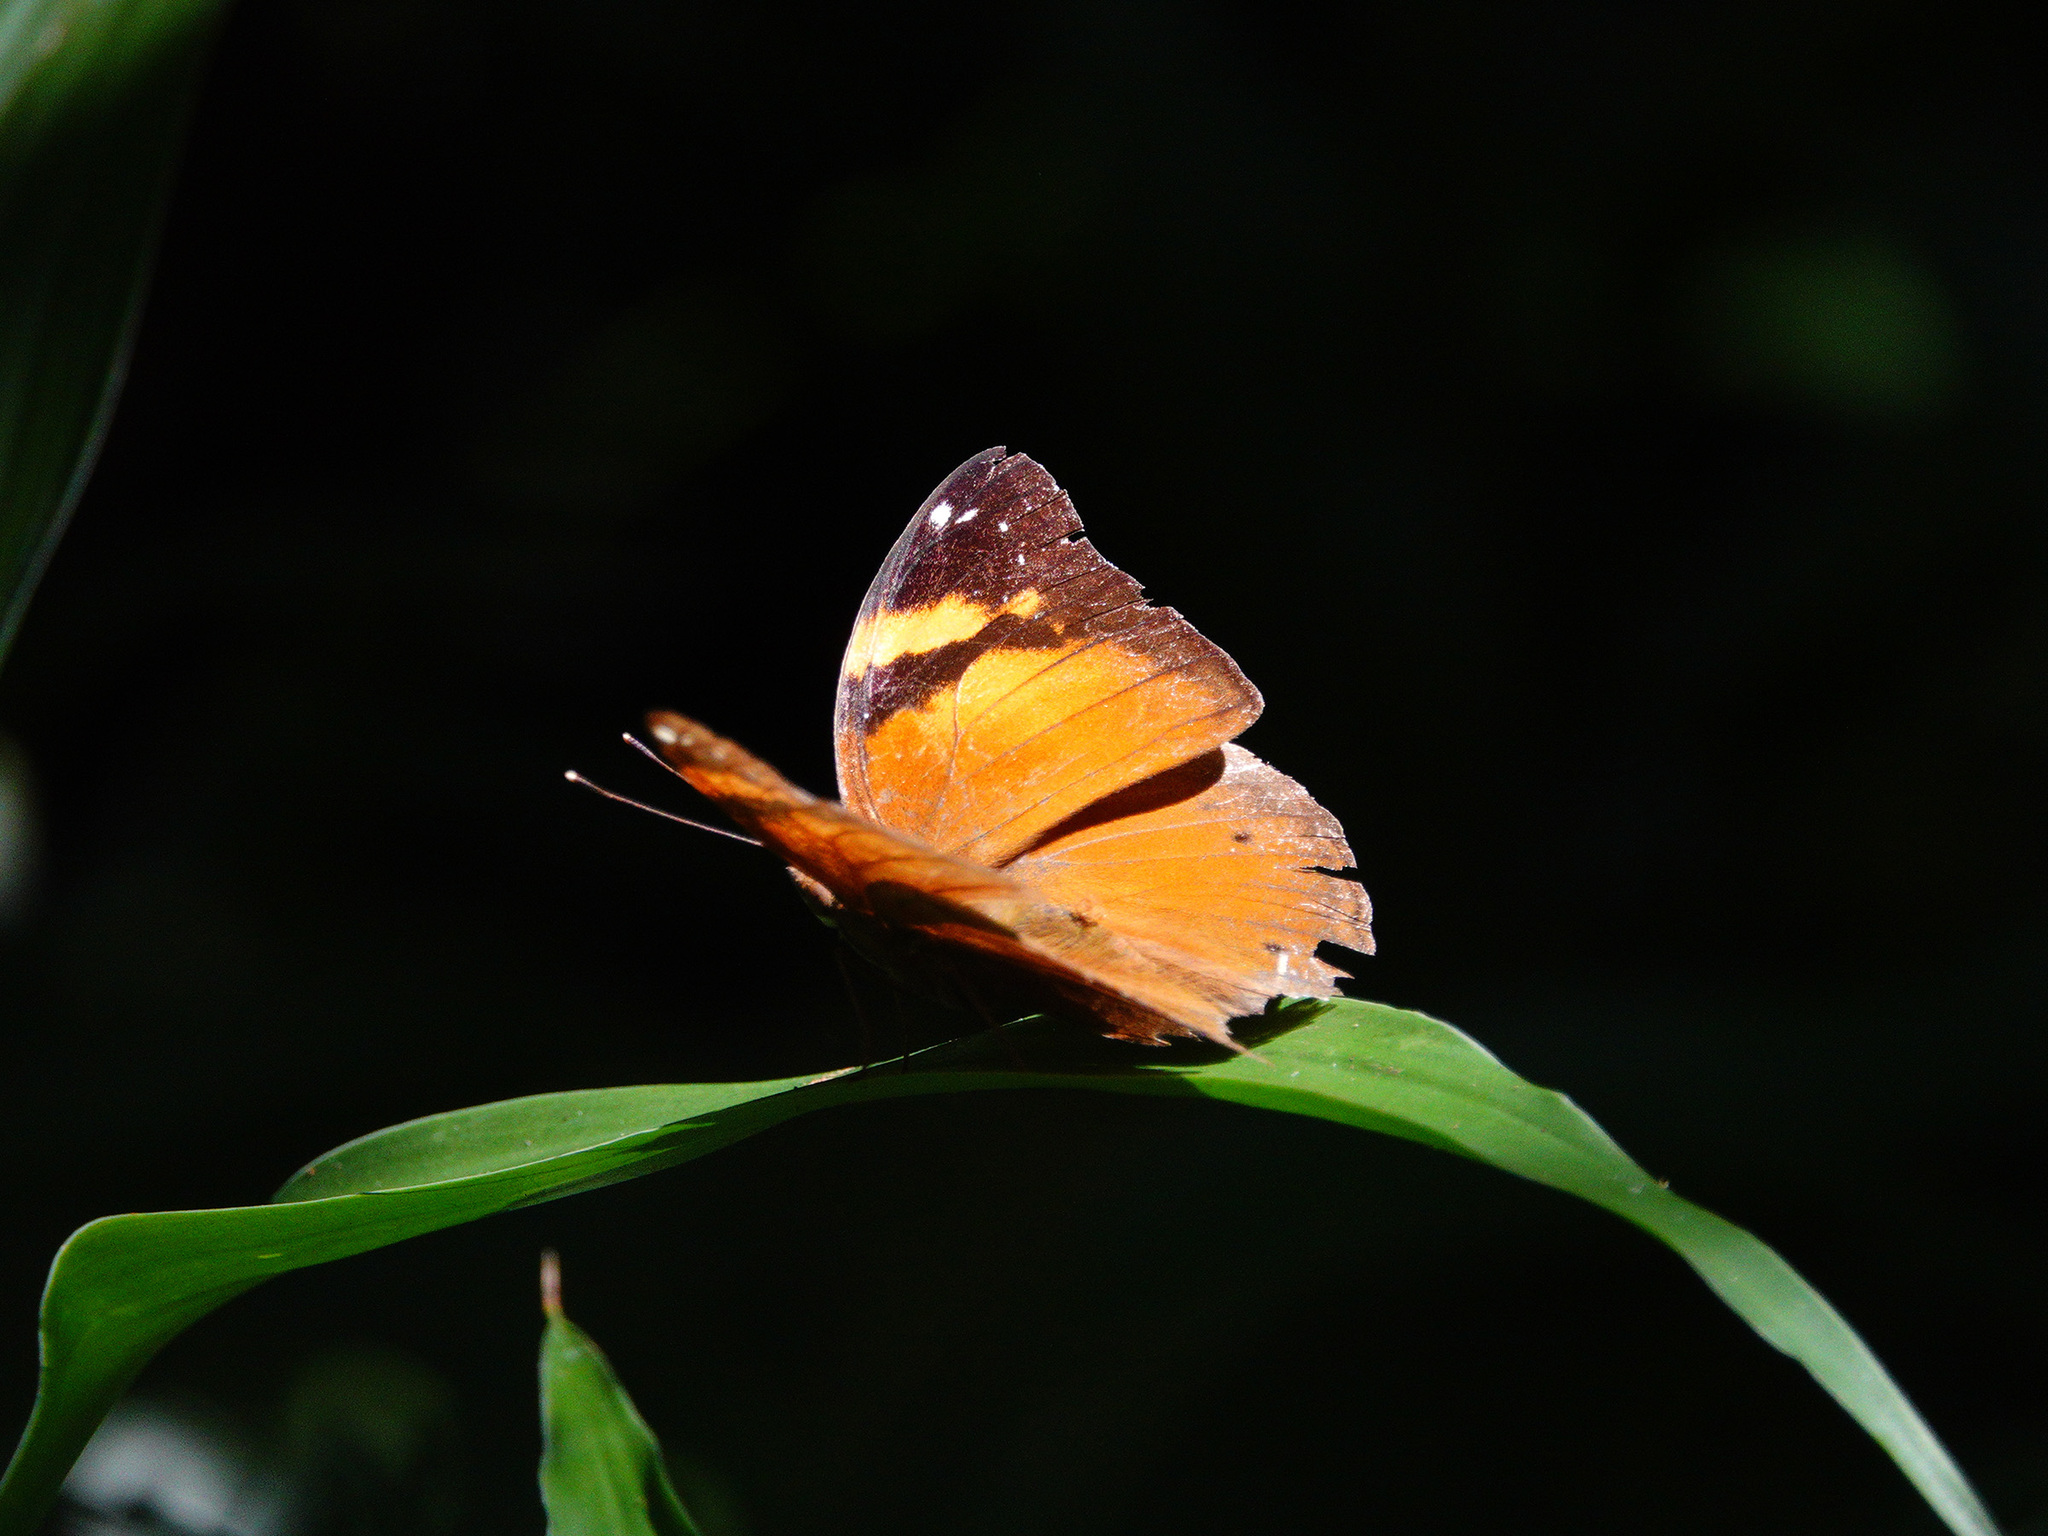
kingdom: Animalia
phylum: Arthropoda
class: Insecta
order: Lepidoptera
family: Nymphalidae
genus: Doleschallia
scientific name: Doleschallia bisaltide
